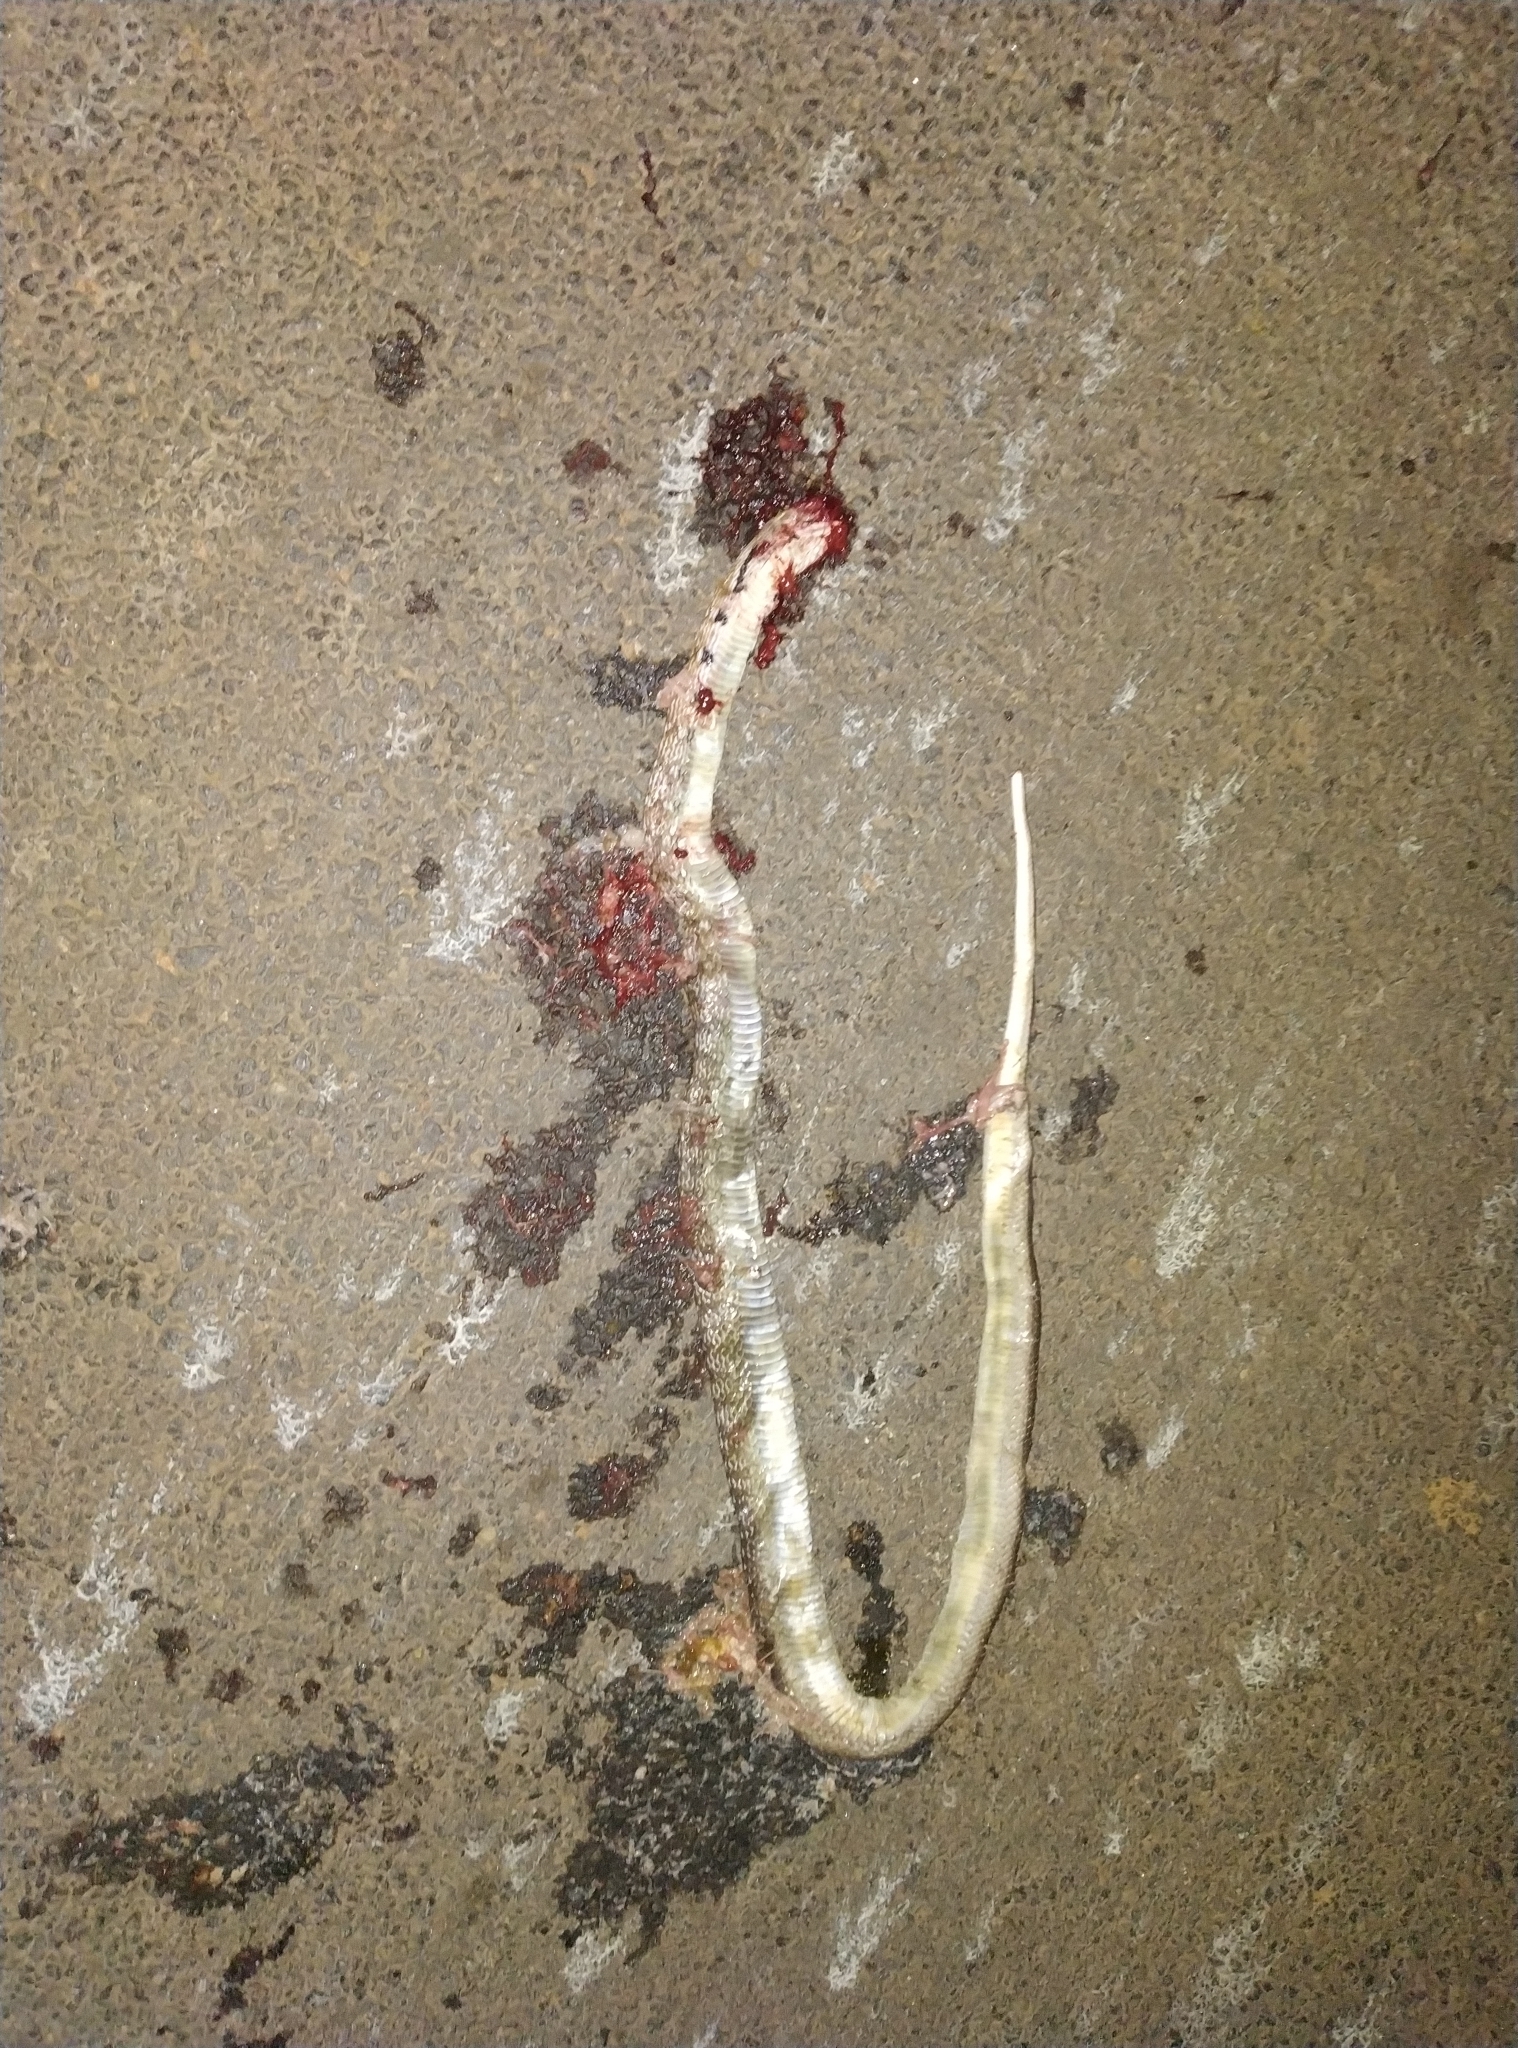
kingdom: Animalia
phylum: Chordata
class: Squamata
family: Colubridae
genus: Coelognathus
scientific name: Coelognathus helena
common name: Trinket snake
